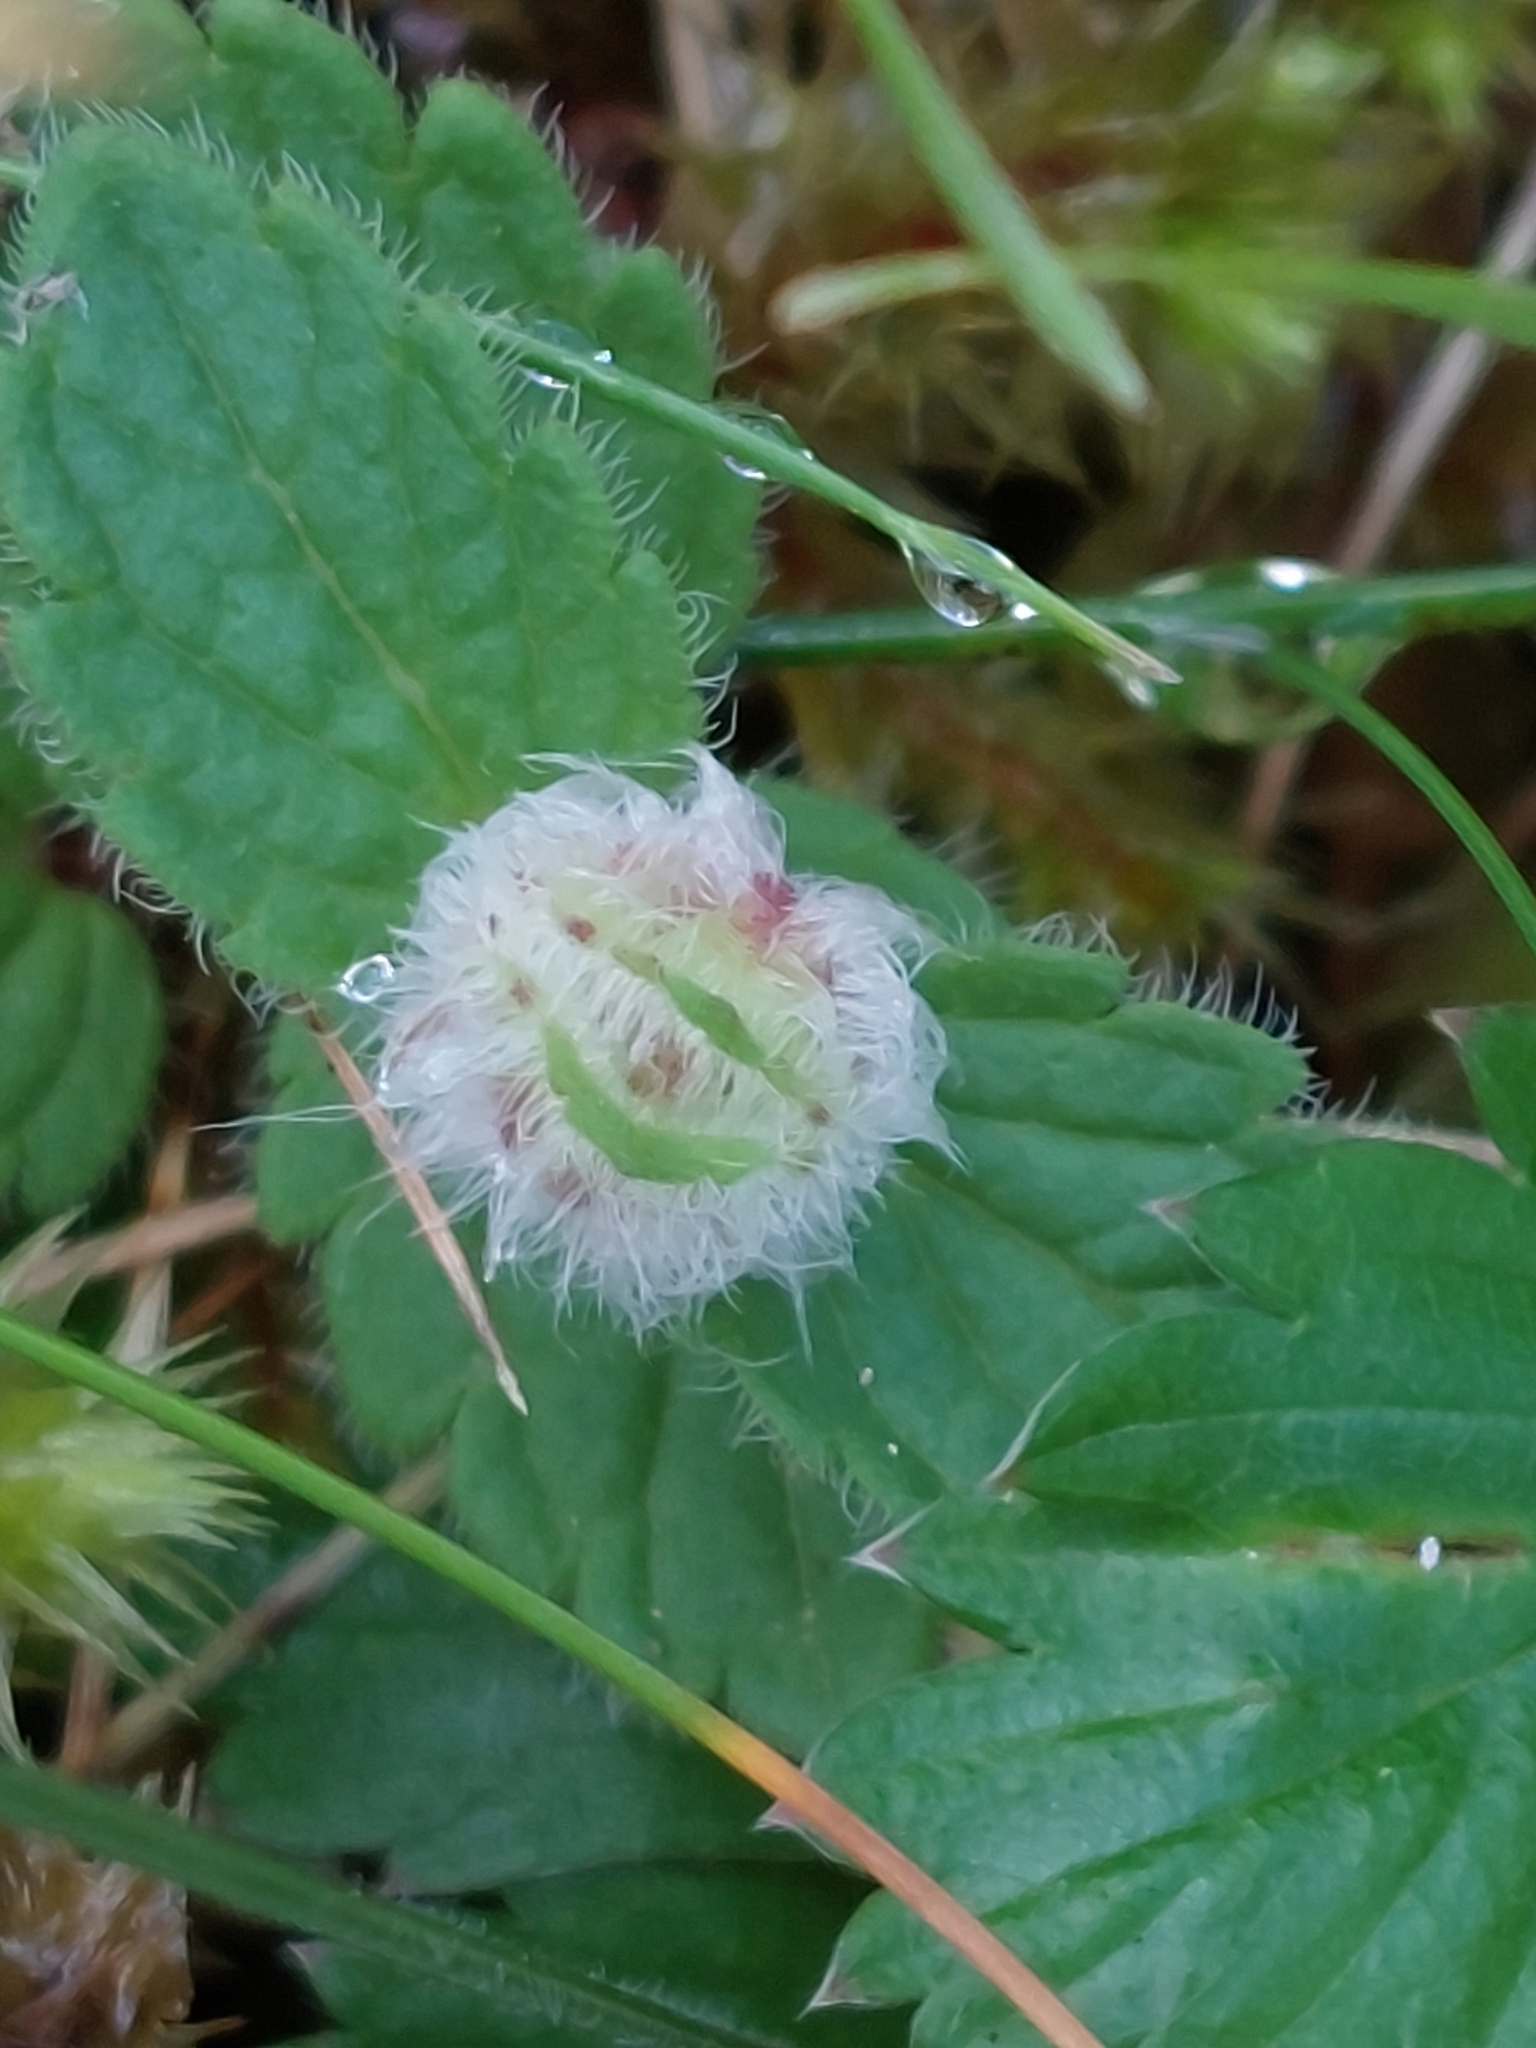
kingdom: Animalia
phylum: Arthropoda
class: Insecta
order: Diptera
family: Cecidomyiidae
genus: Jaapiella
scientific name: Jaapiella veronicae
